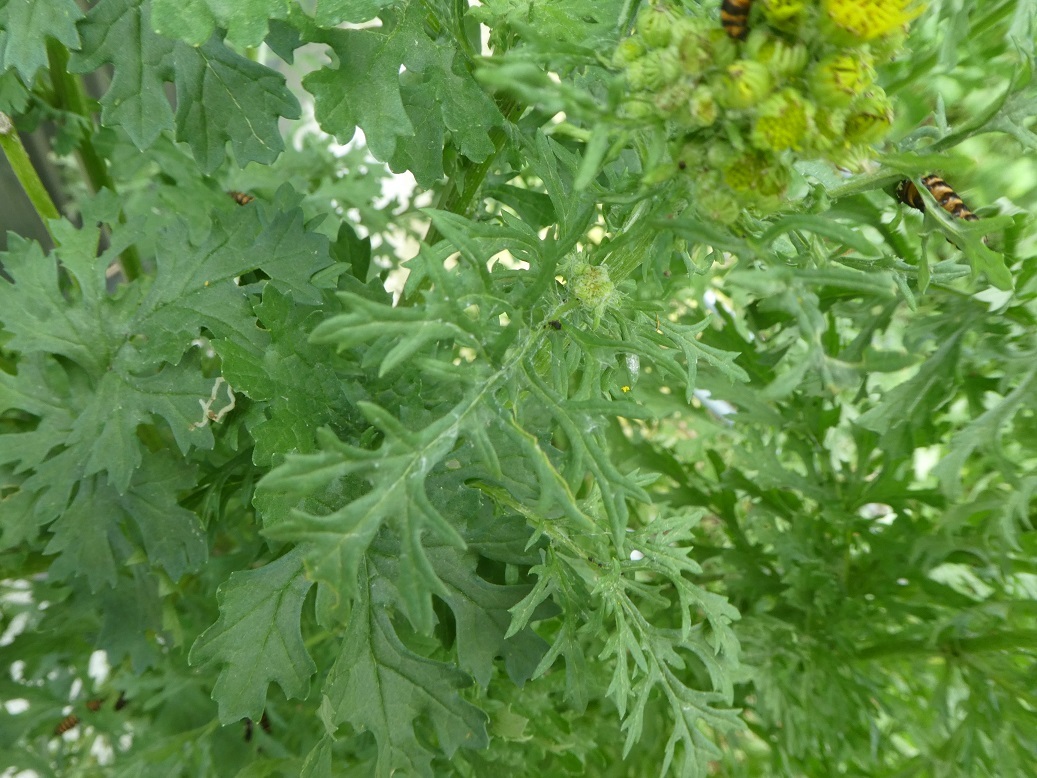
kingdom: Plantae
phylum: Tracheophyta
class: Magnoliopsida
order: Asterales
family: Asteraceae
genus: Jacobaea
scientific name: Jacobaea vulgaris
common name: Stinking willie
